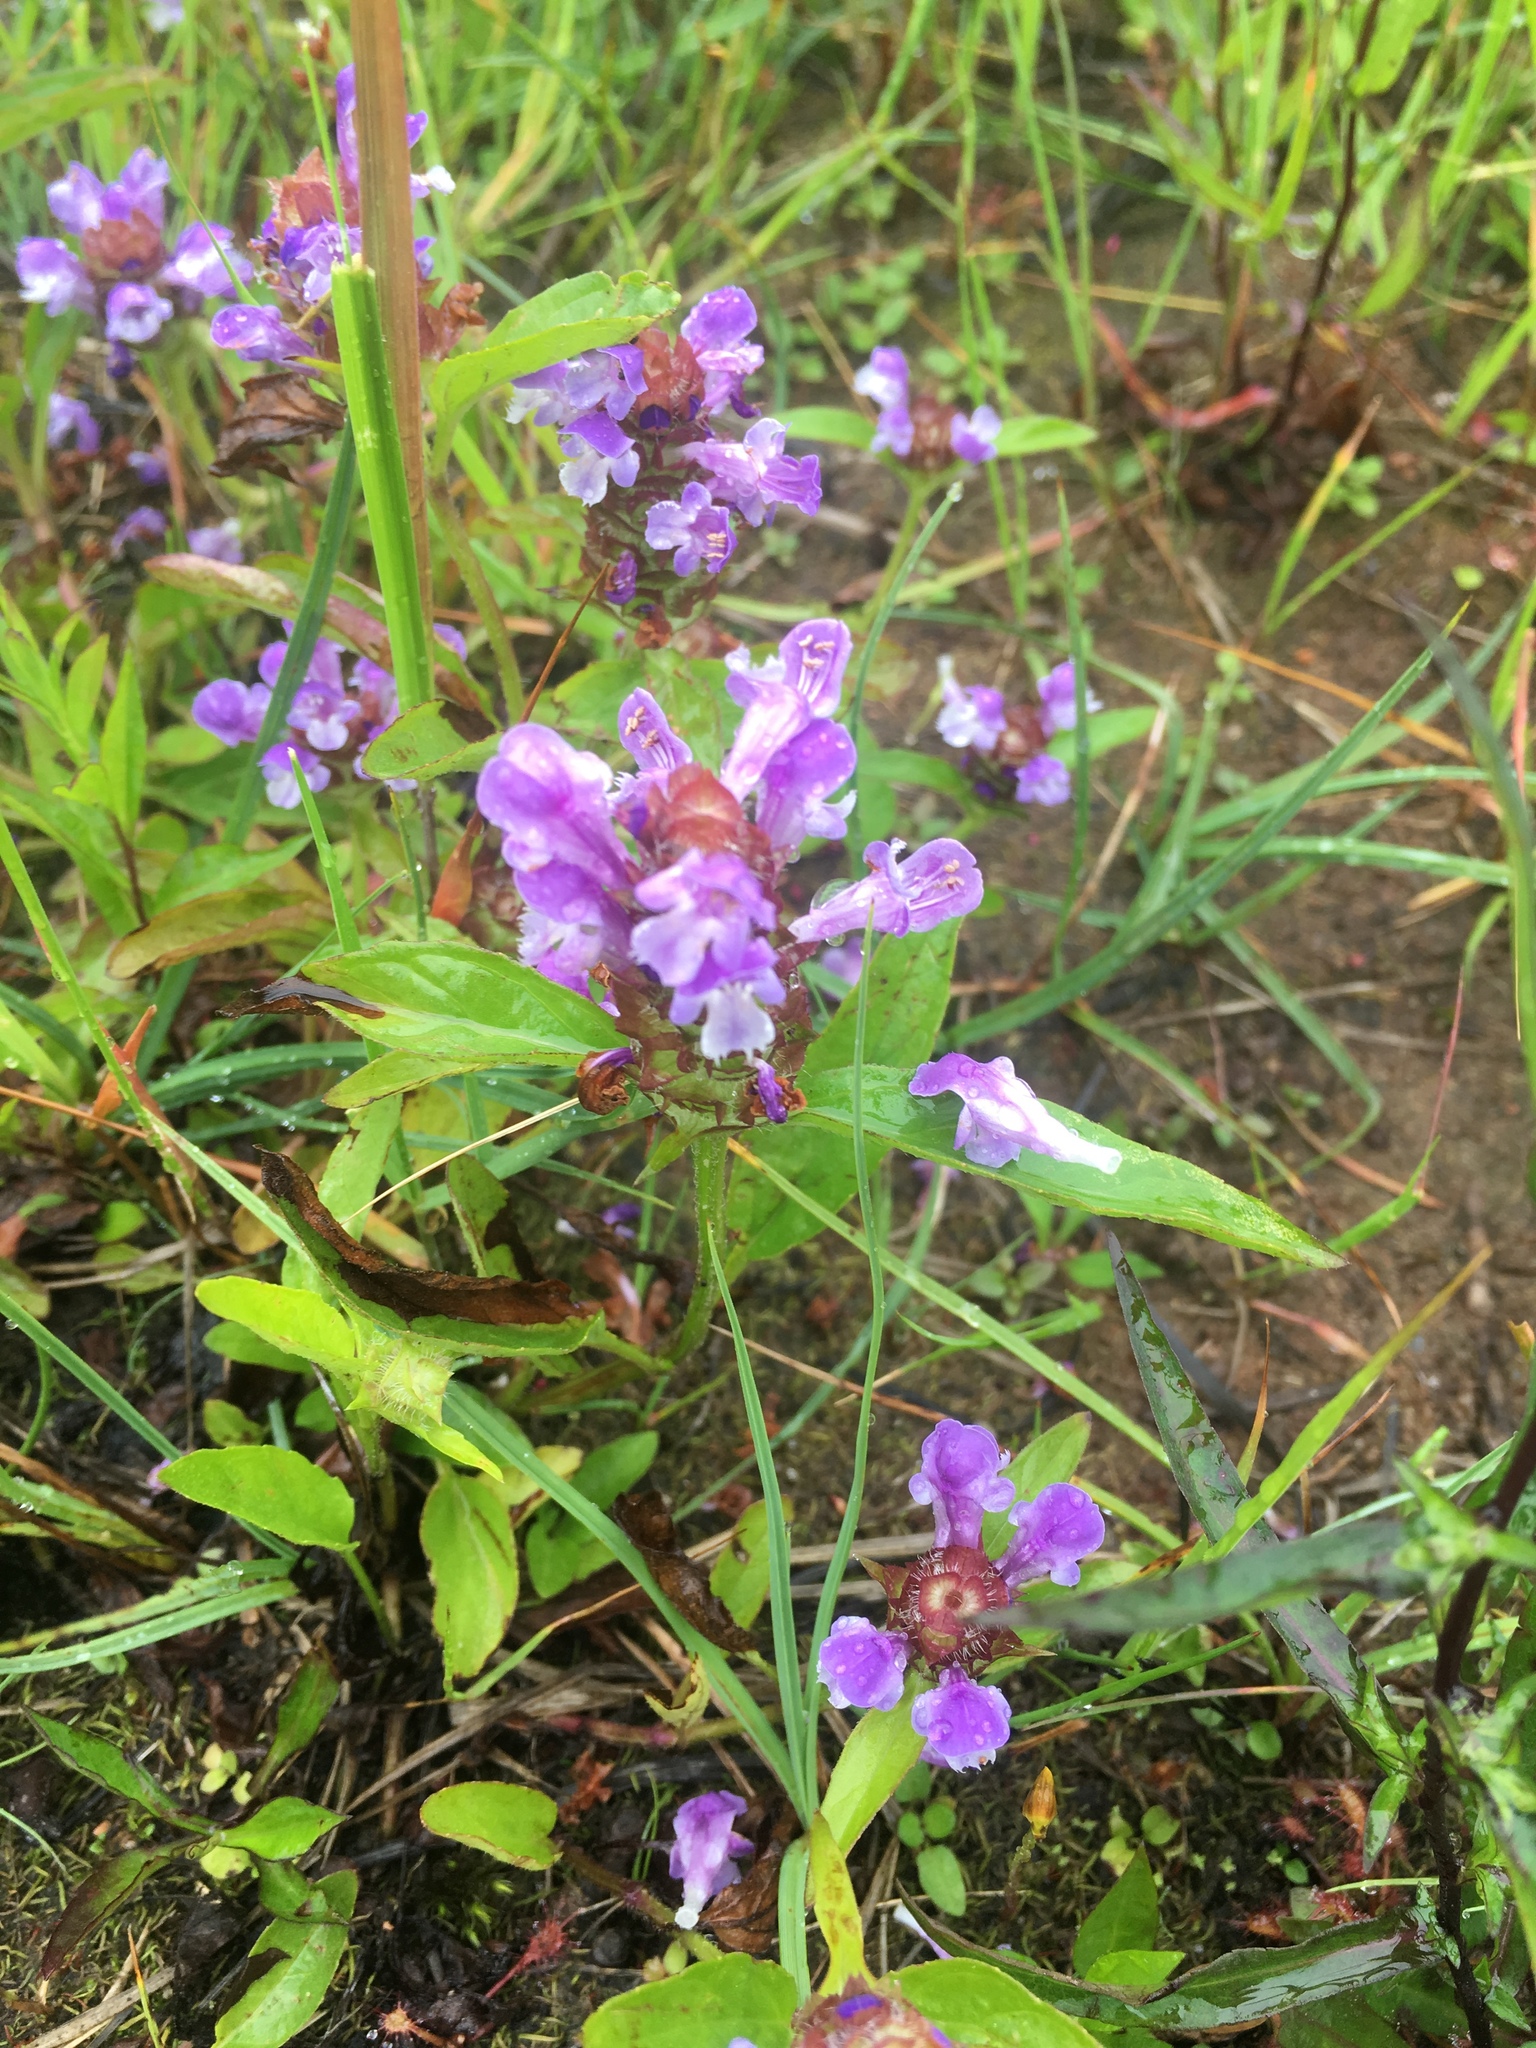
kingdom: Plantae
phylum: Tracheophyta
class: Magnoliopsida
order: Lamiales
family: Lamiaceae
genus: Prunella
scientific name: Prunella vulgaris
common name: Heal-all
